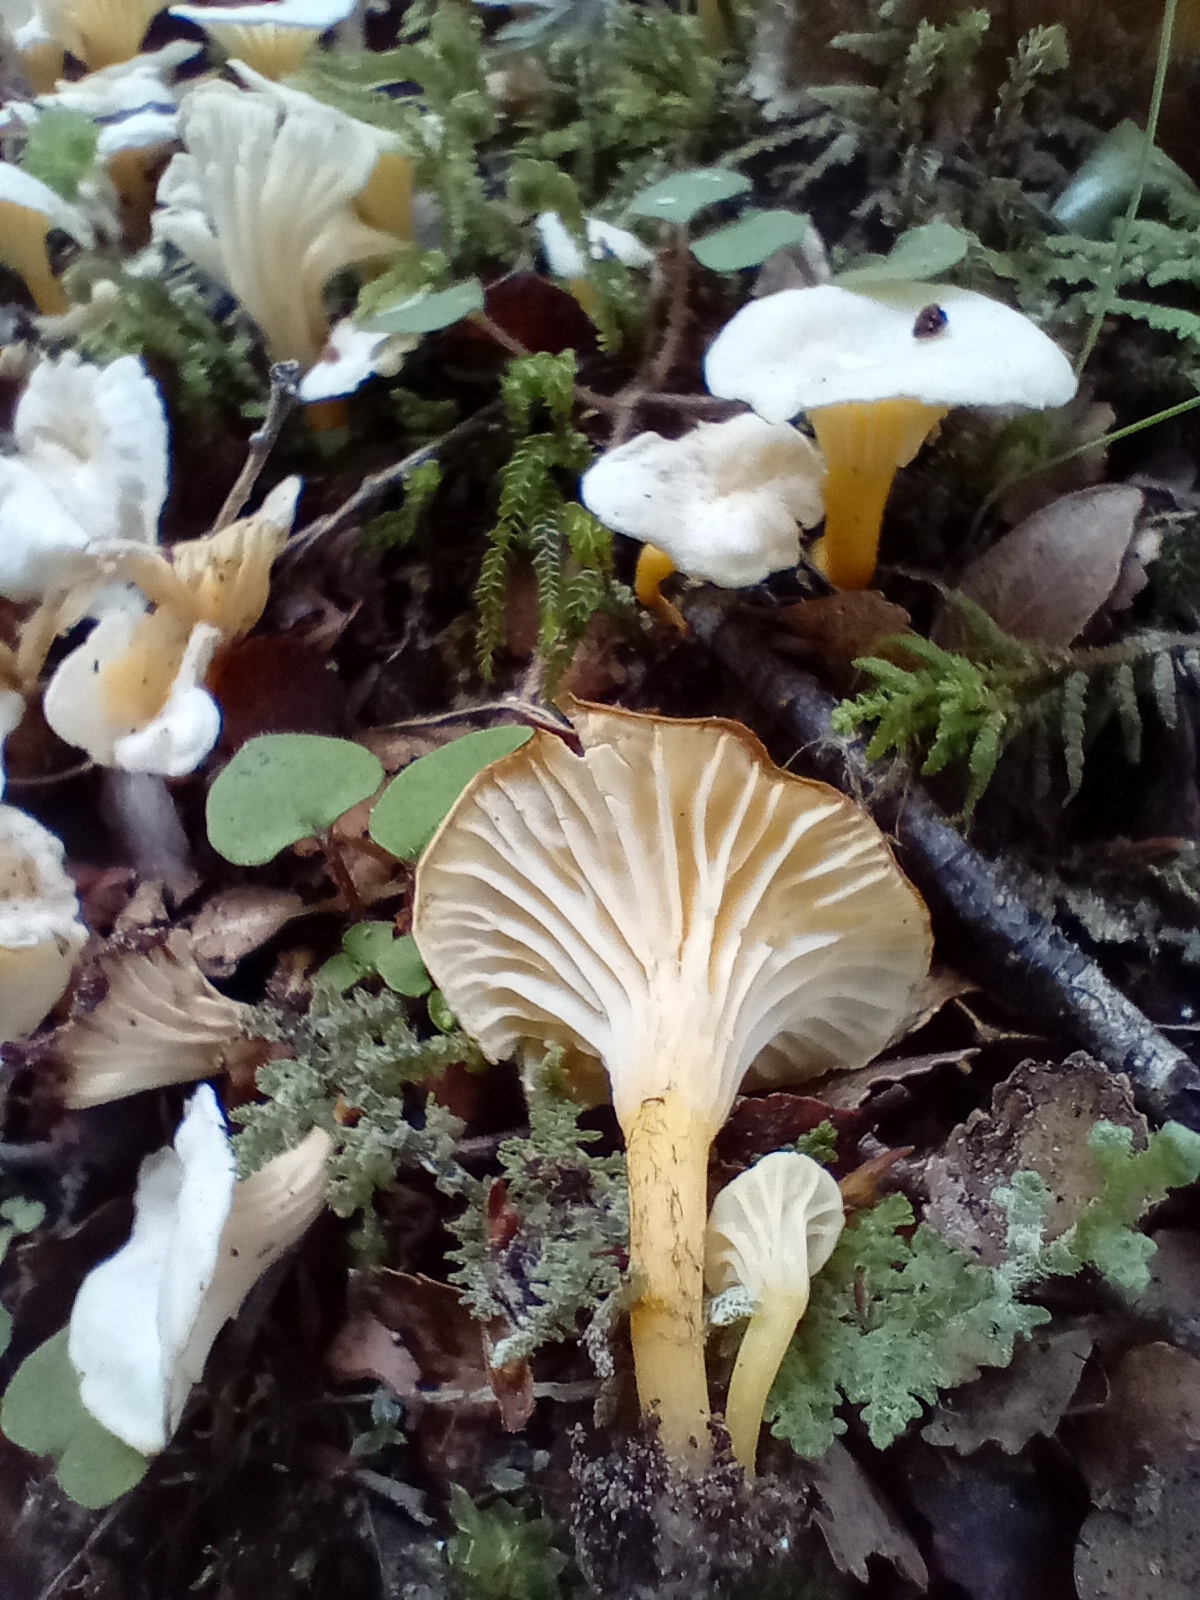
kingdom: Fungi
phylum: Basidiomycota
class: Agaricomycetes
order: Cantharellales
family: Hydnaceae
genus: Cantharellus
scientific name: Cantharellus wellingtonensis
